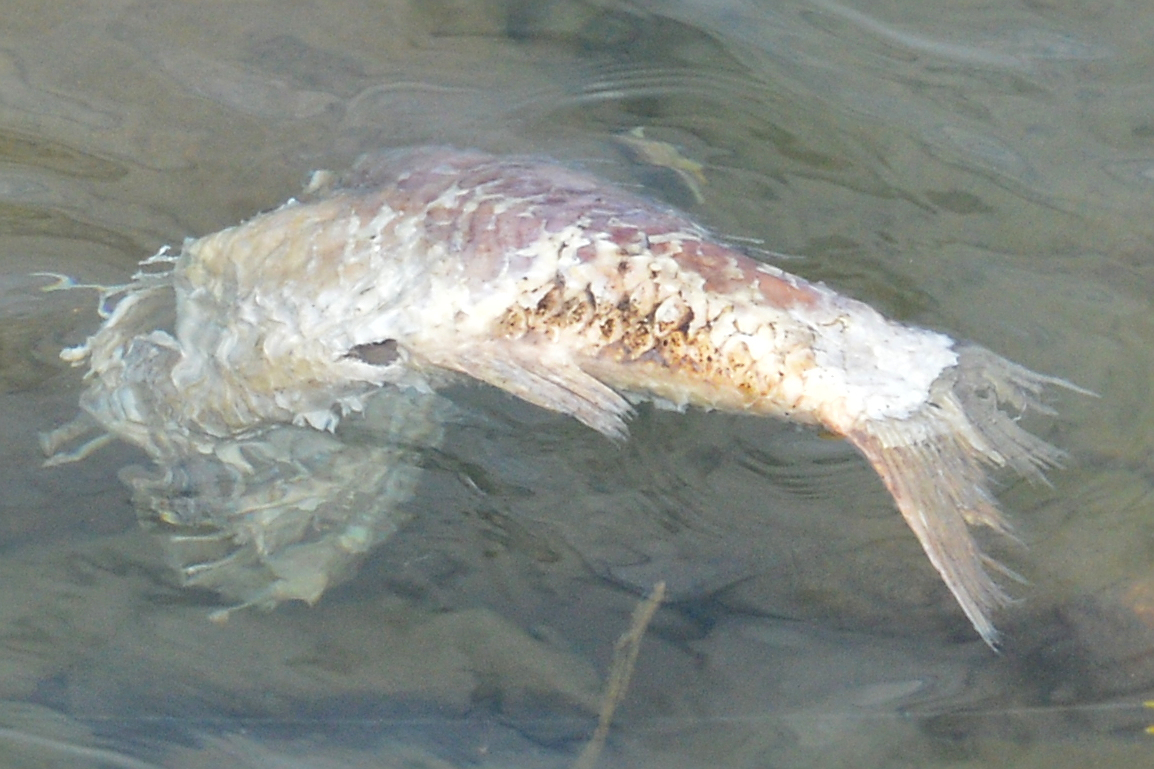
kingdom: Animalia
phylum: Chordata
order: Cypriniformes
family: Cyprinidae
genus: Cyprinus
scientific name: Cyprinus carpio
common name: Common carp
